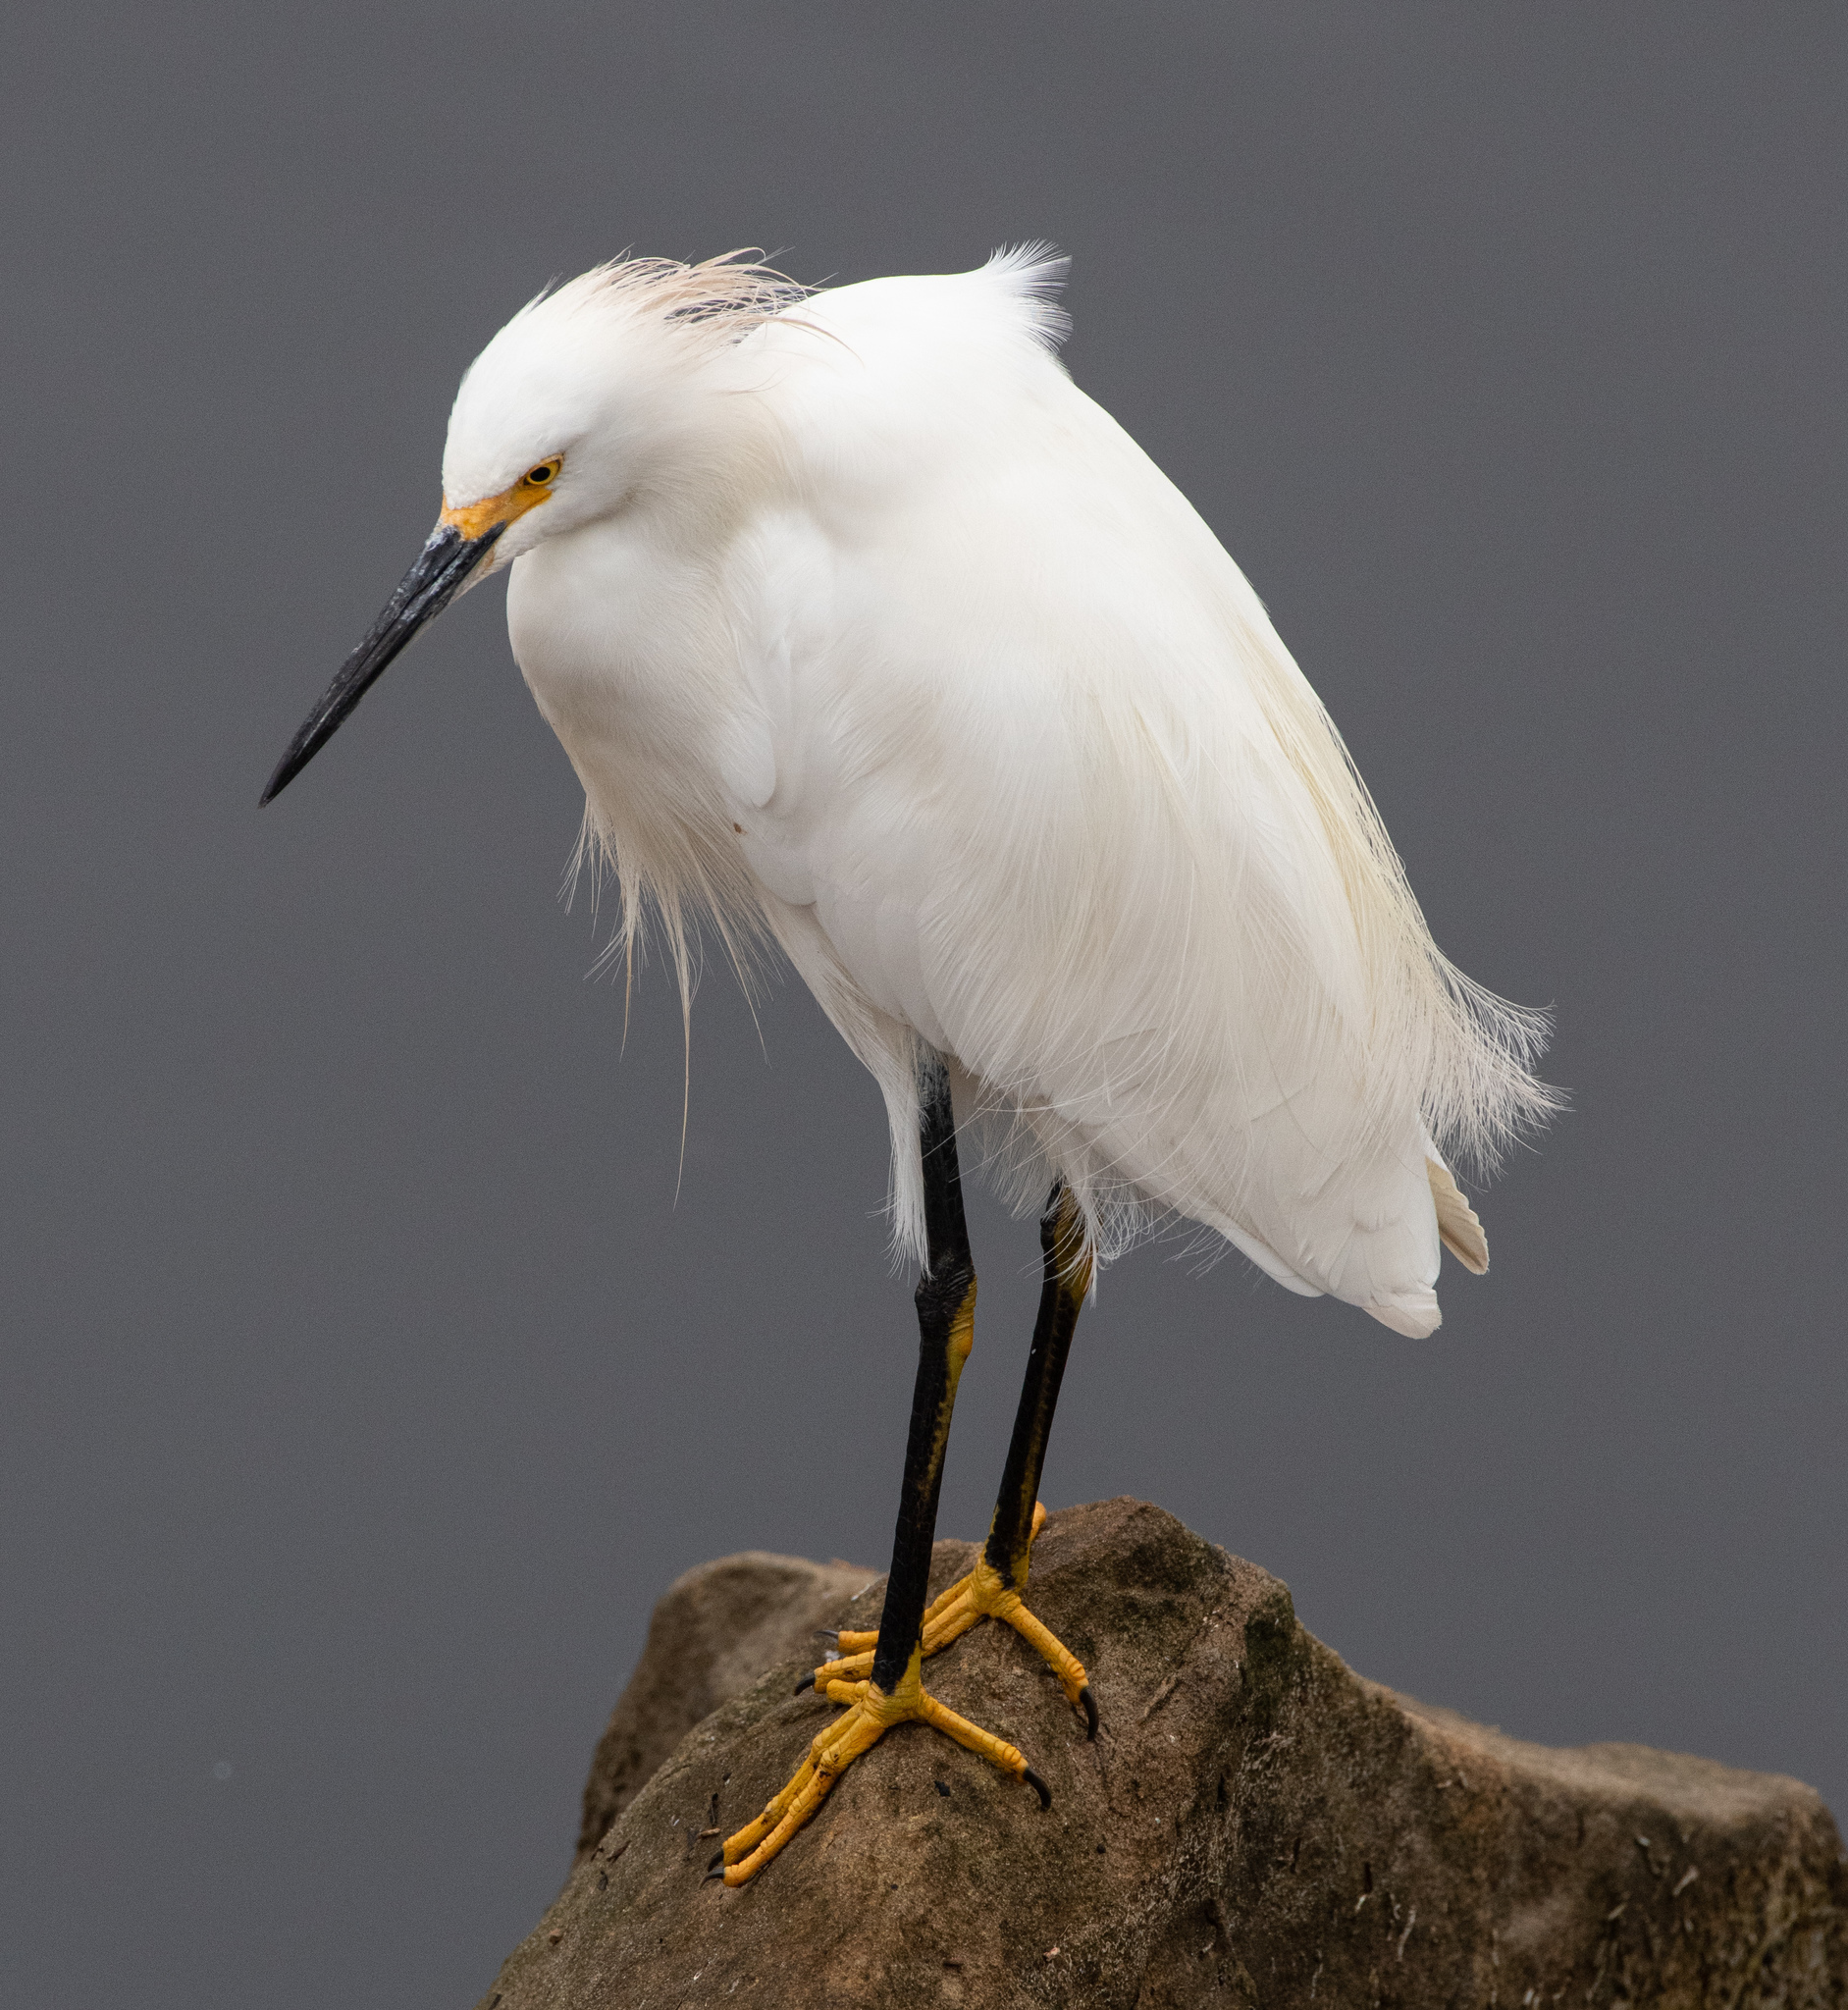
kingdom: Animalia
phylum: Chordata
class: Aves
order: Pelecaniformes
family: Ardeidae
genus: Egretta
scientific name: Egretta thula
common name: Snowy egret
